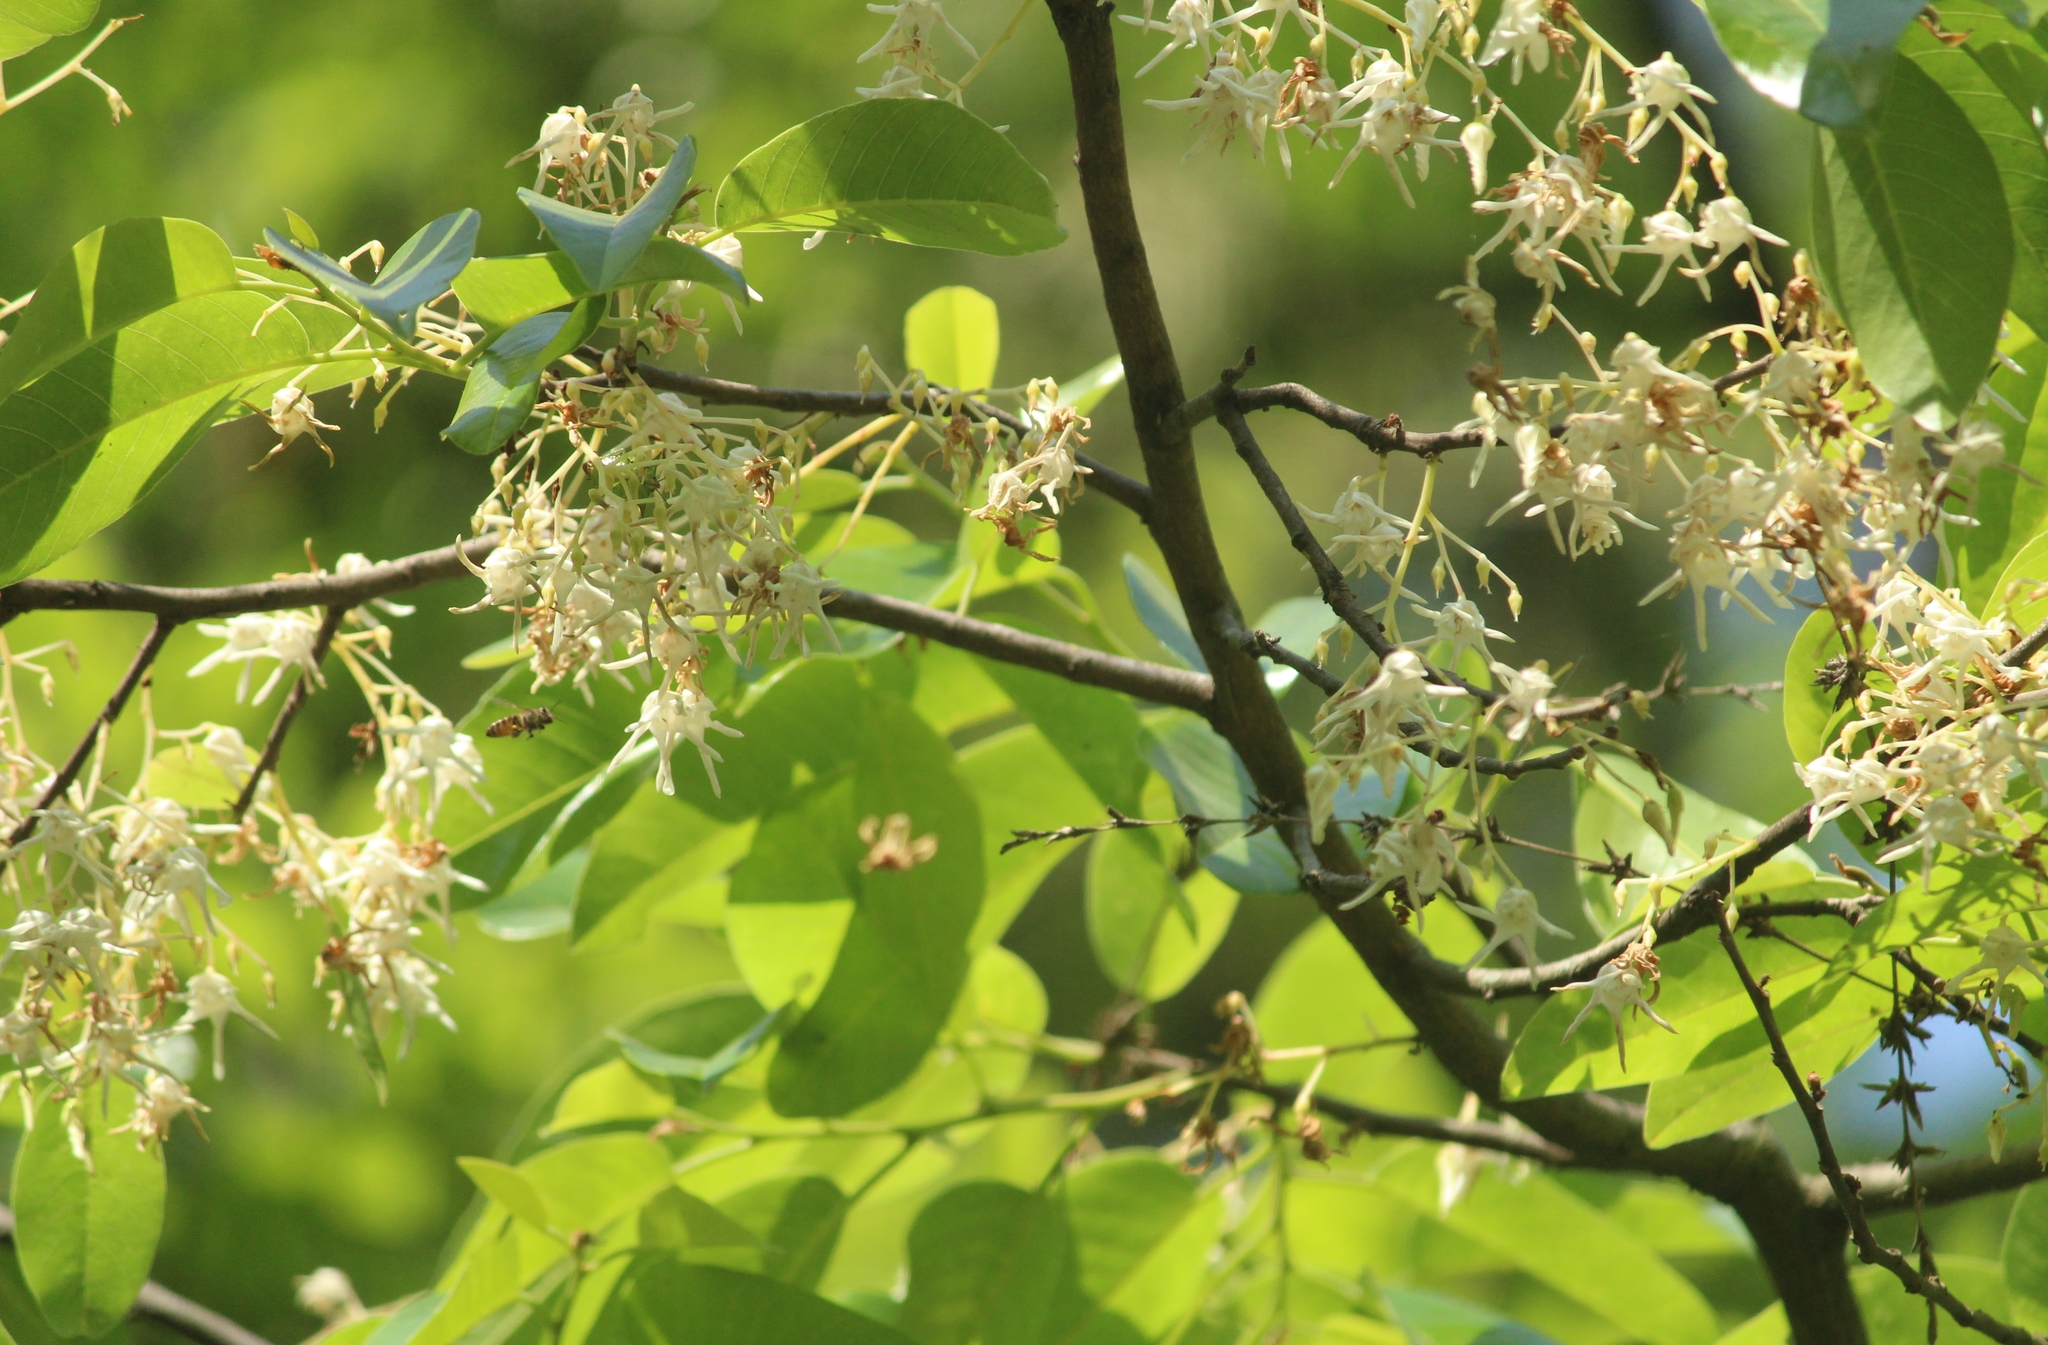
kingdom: Plantae
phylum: Tracheophyta
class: Magnoliopsida
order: Malvales
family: Dipterocarpaceae
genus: Anthoshorea
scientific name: Anthoshorea roxburghii
